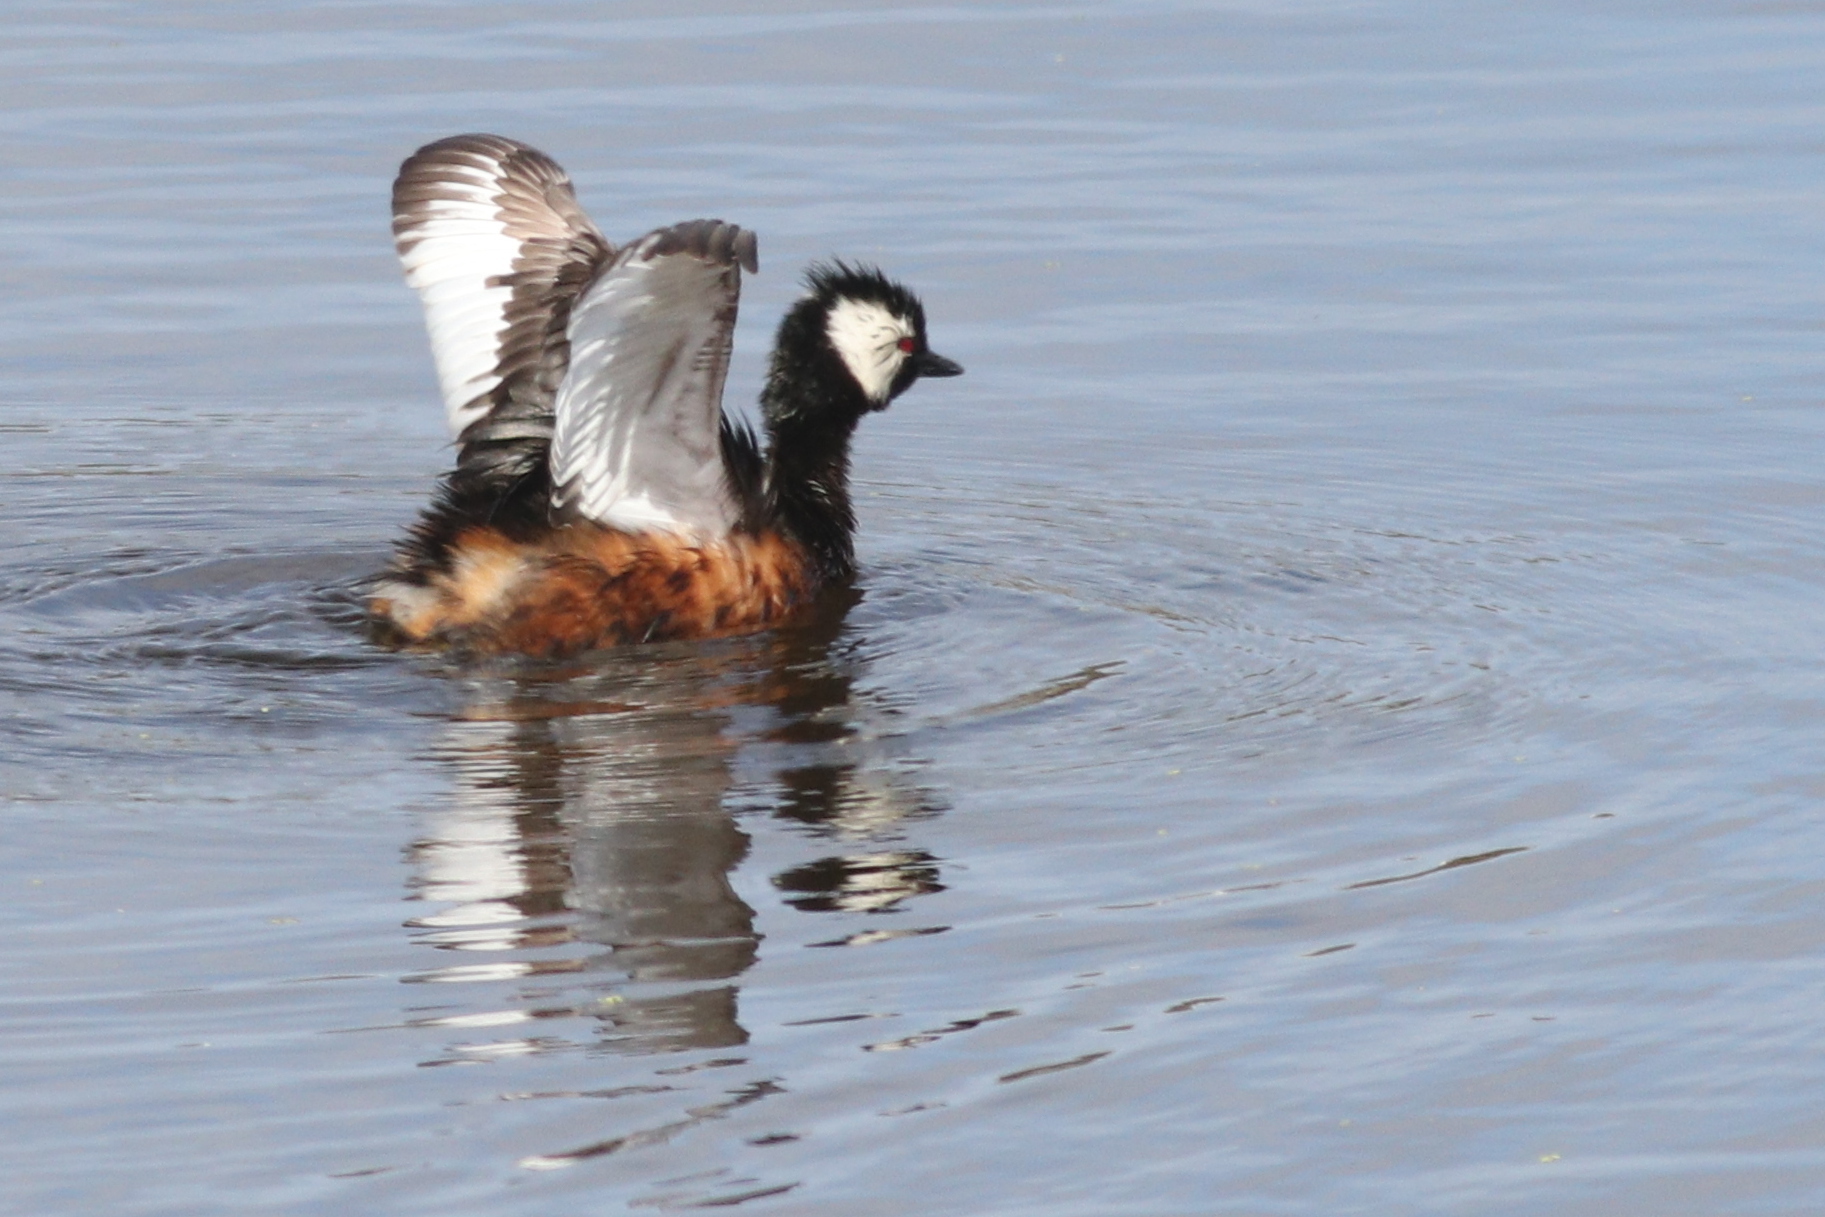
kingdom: Animalia
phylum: Chordata
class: Aves
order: Podicipediformes
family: Podicipedidae
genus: Rollandia
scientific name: Rollandia rolland
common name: White-tufted grebe
